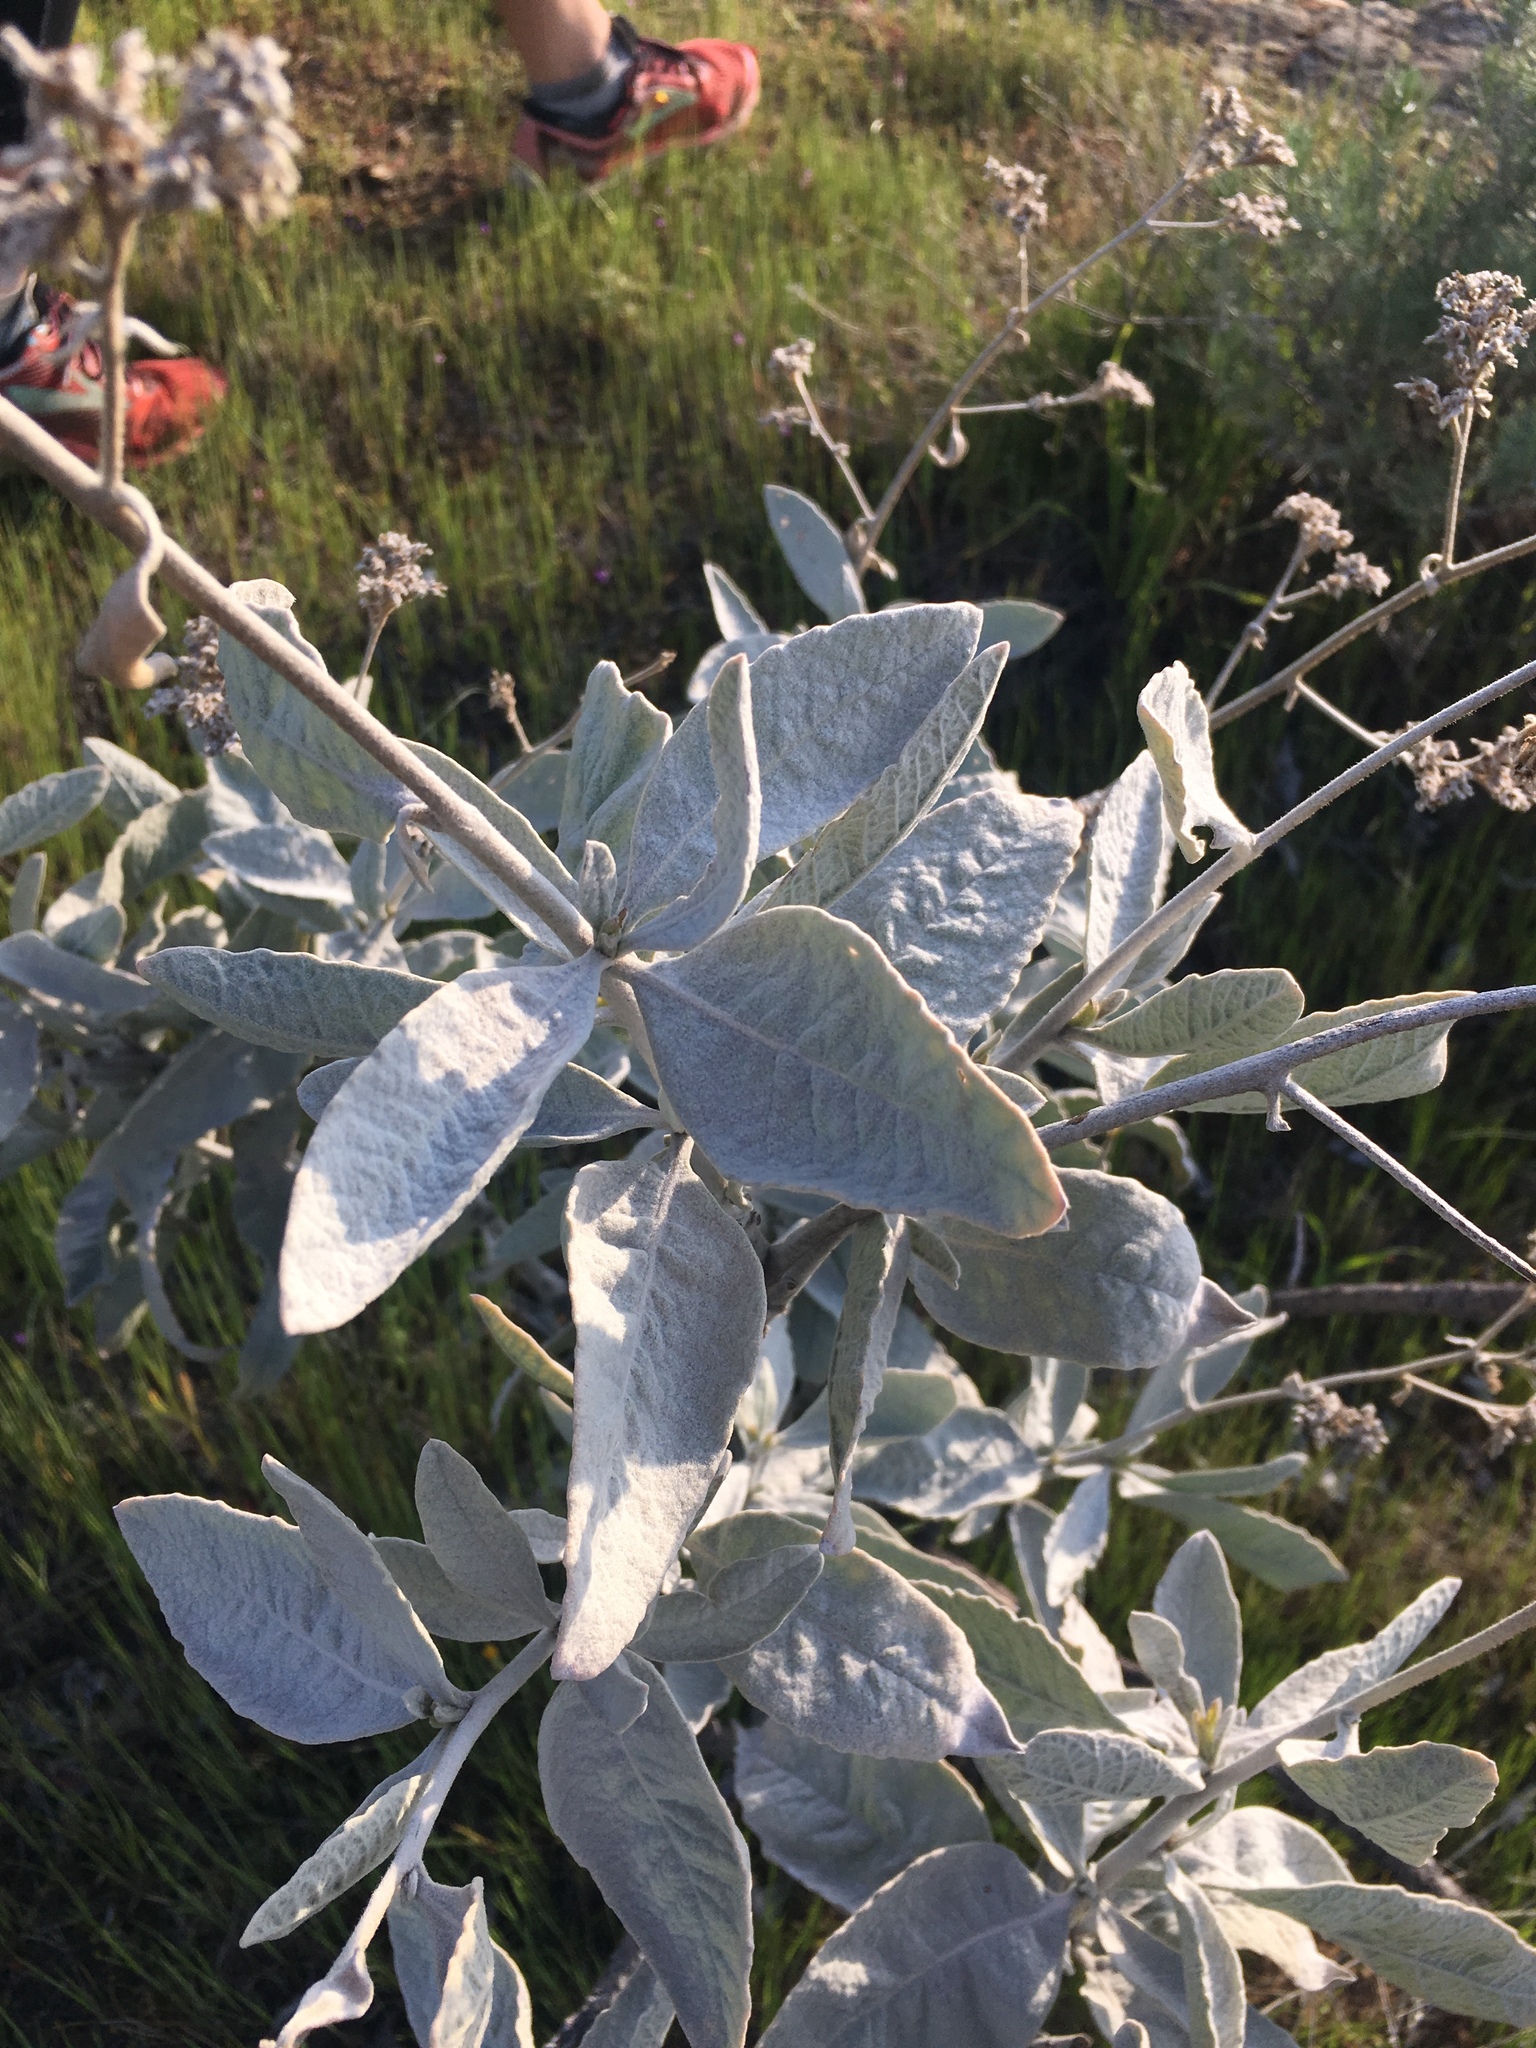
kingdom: Plantae
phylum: Tracheophyta
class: Magnoliopsida
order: Boraginales
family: Namaceae
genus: Eriodictyon
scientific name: Eriodictyon tomentosum
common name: Woolly yerba-santa
